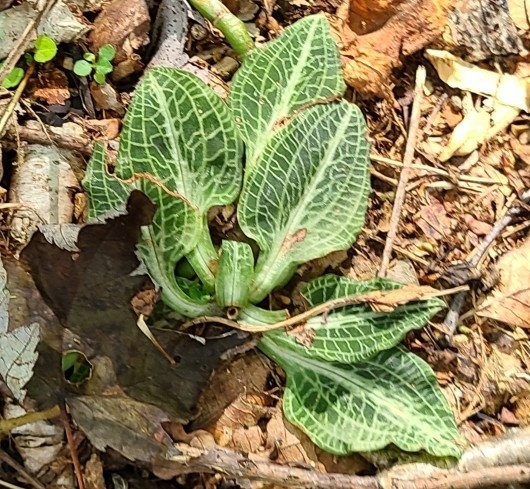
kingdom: Plantae
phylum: Tracheophyta
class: Liliopsida
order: Asparagales
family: Orchidaceae
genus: Goodyera
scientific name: Goodyera pubescens
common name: Downy rattlesnake-plantain
